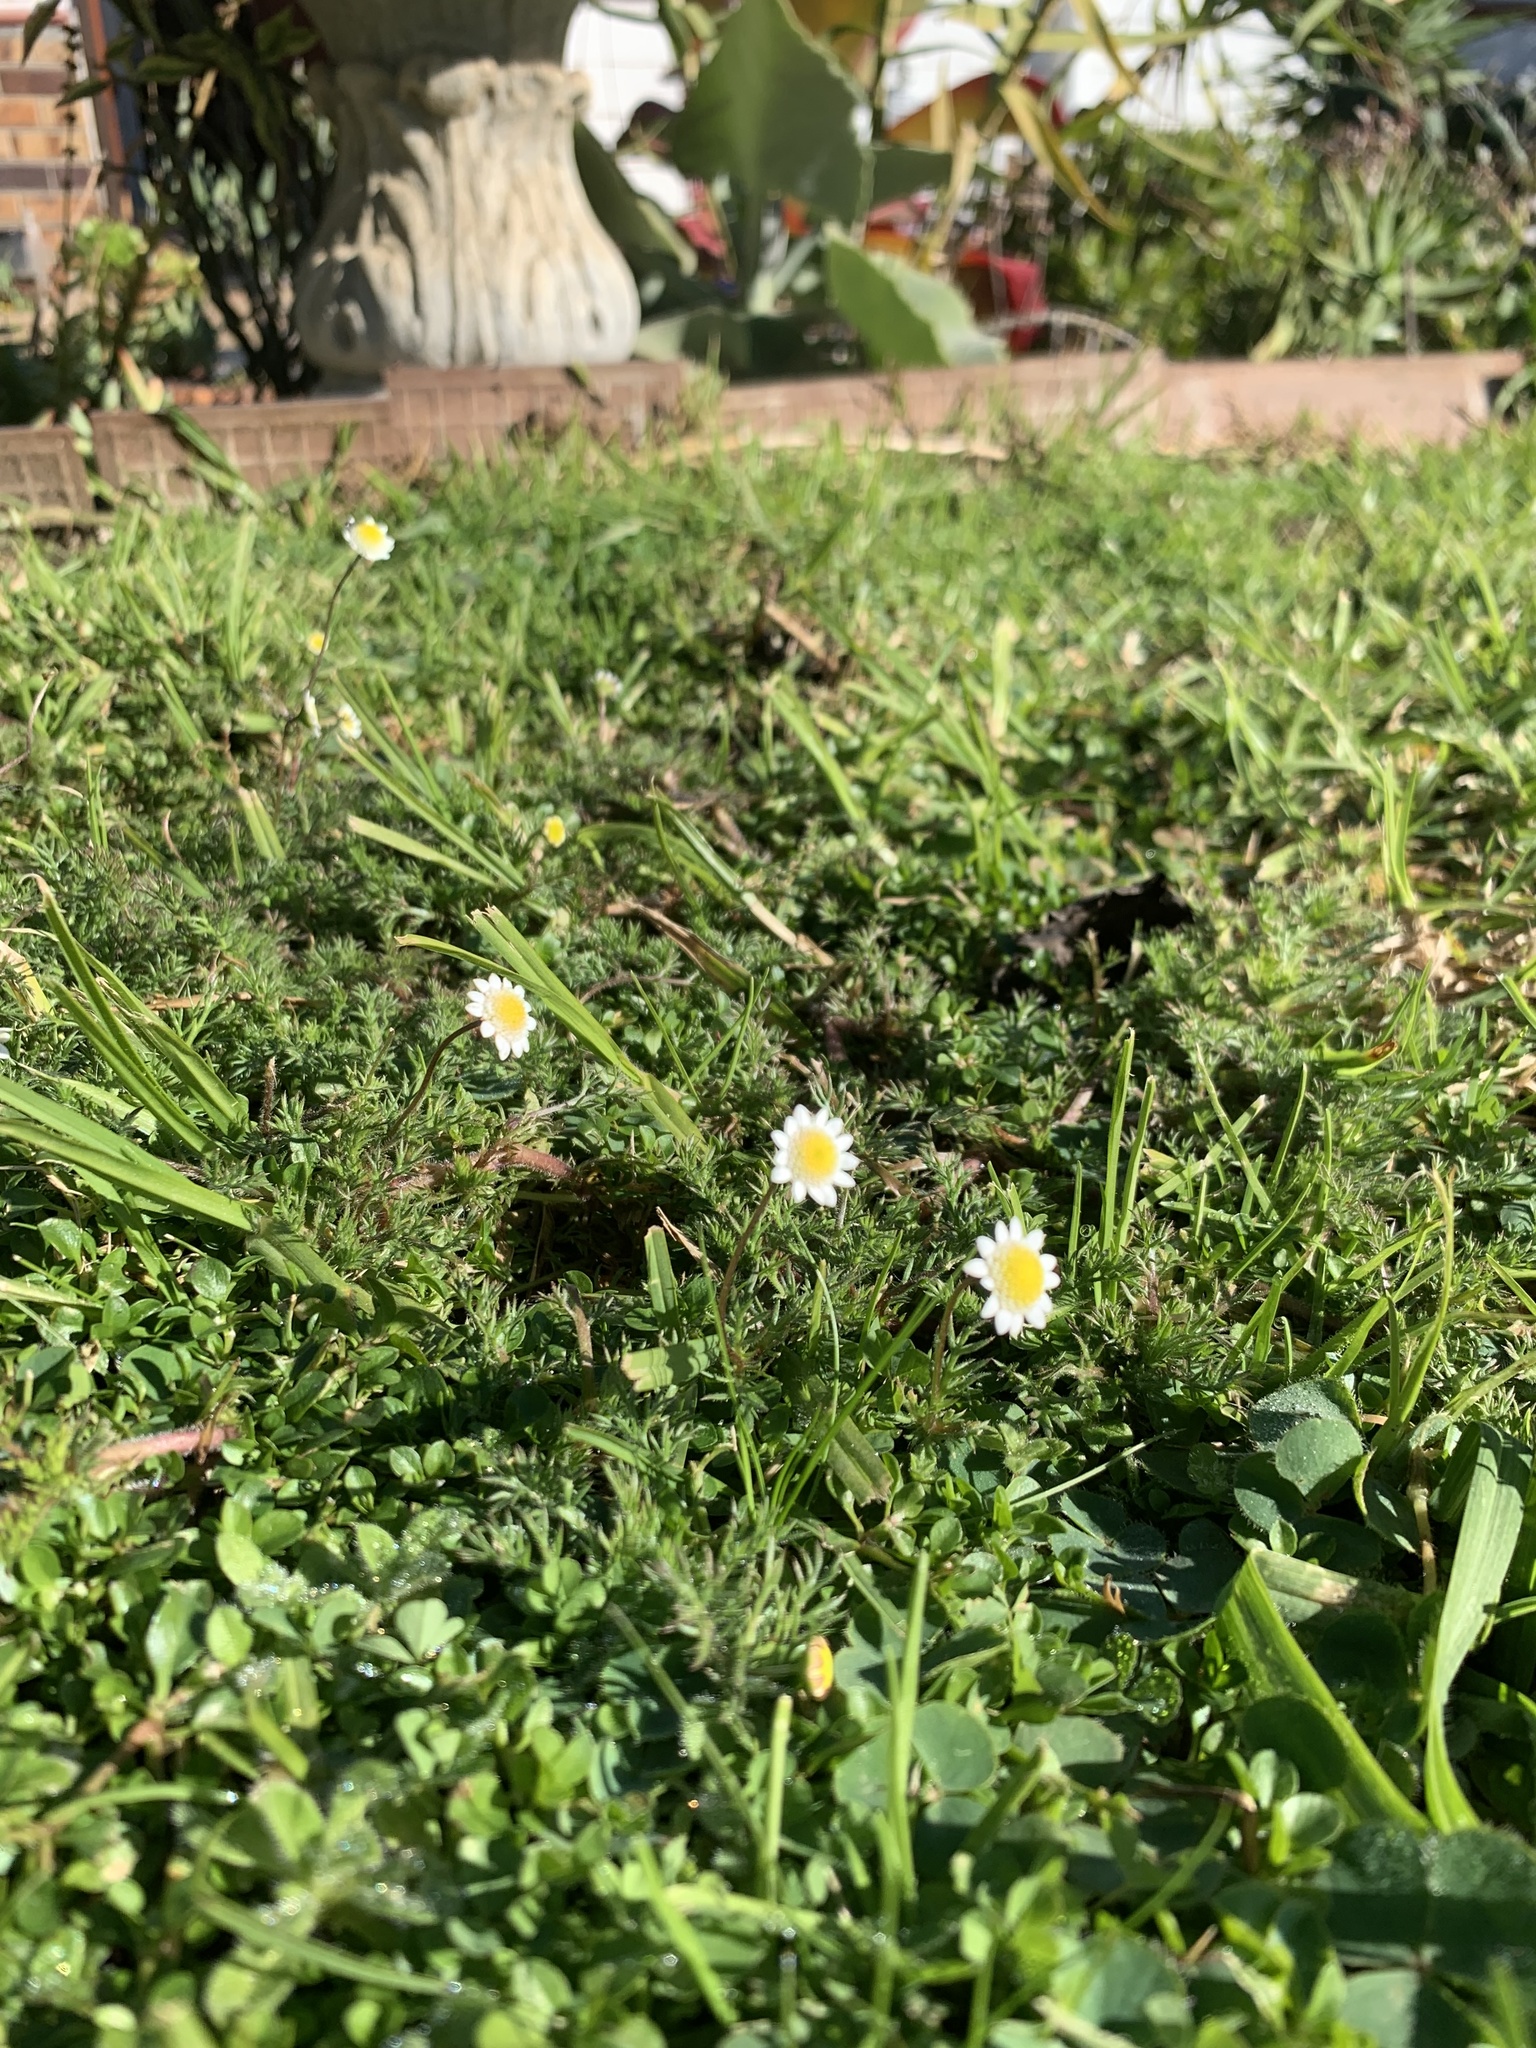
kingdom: Plantae
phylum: Tracheophyta
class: Magnoliopsida
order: Asterales
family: Asteraceae
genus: Cotula
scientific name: Cotula turbinata
